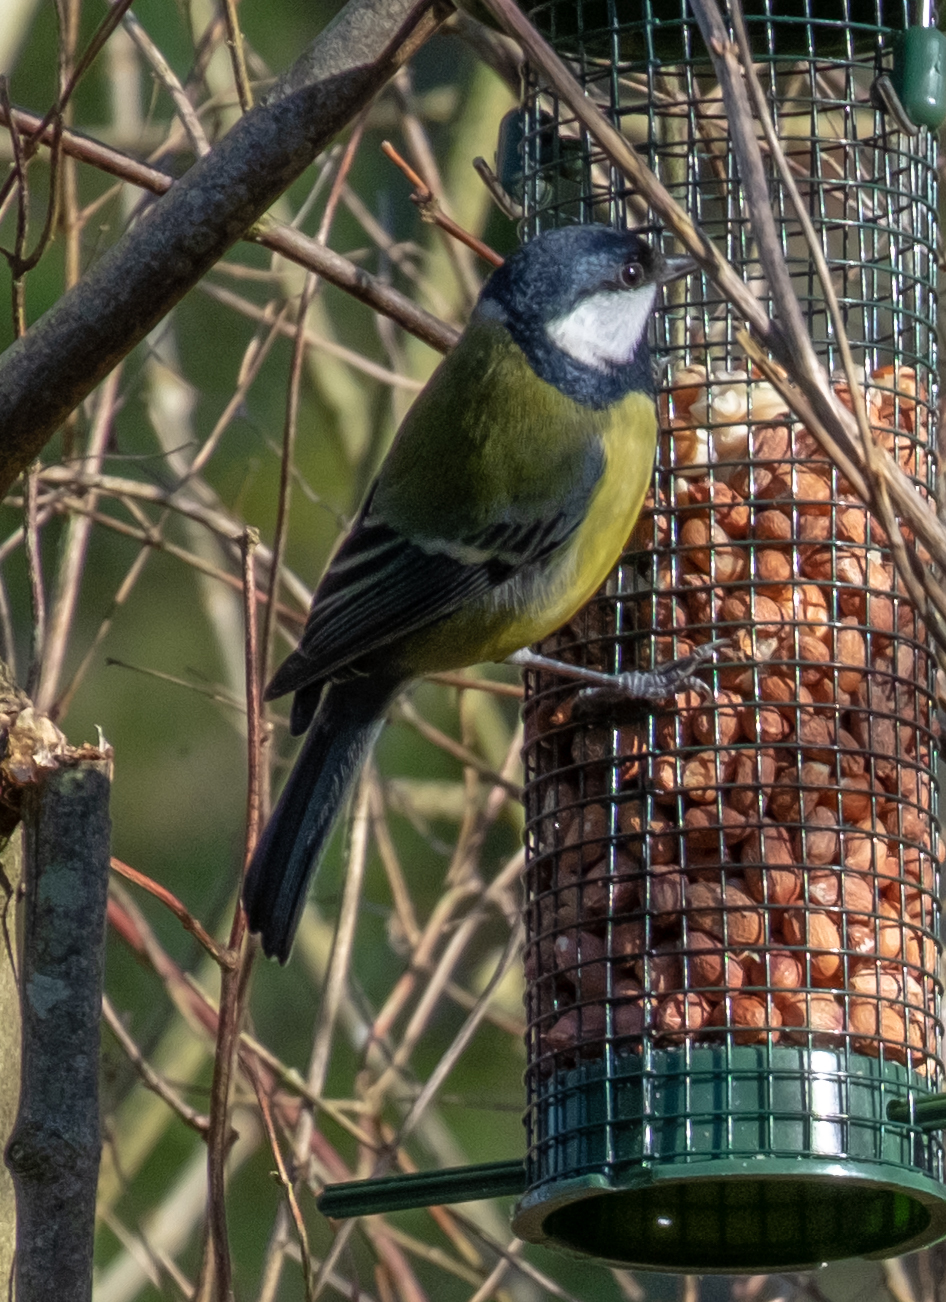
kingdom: Animalia
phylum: Chordata
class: Aves
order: Passeriformes
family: Paridae
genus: Parus
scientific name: Parus major
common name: Great tit
